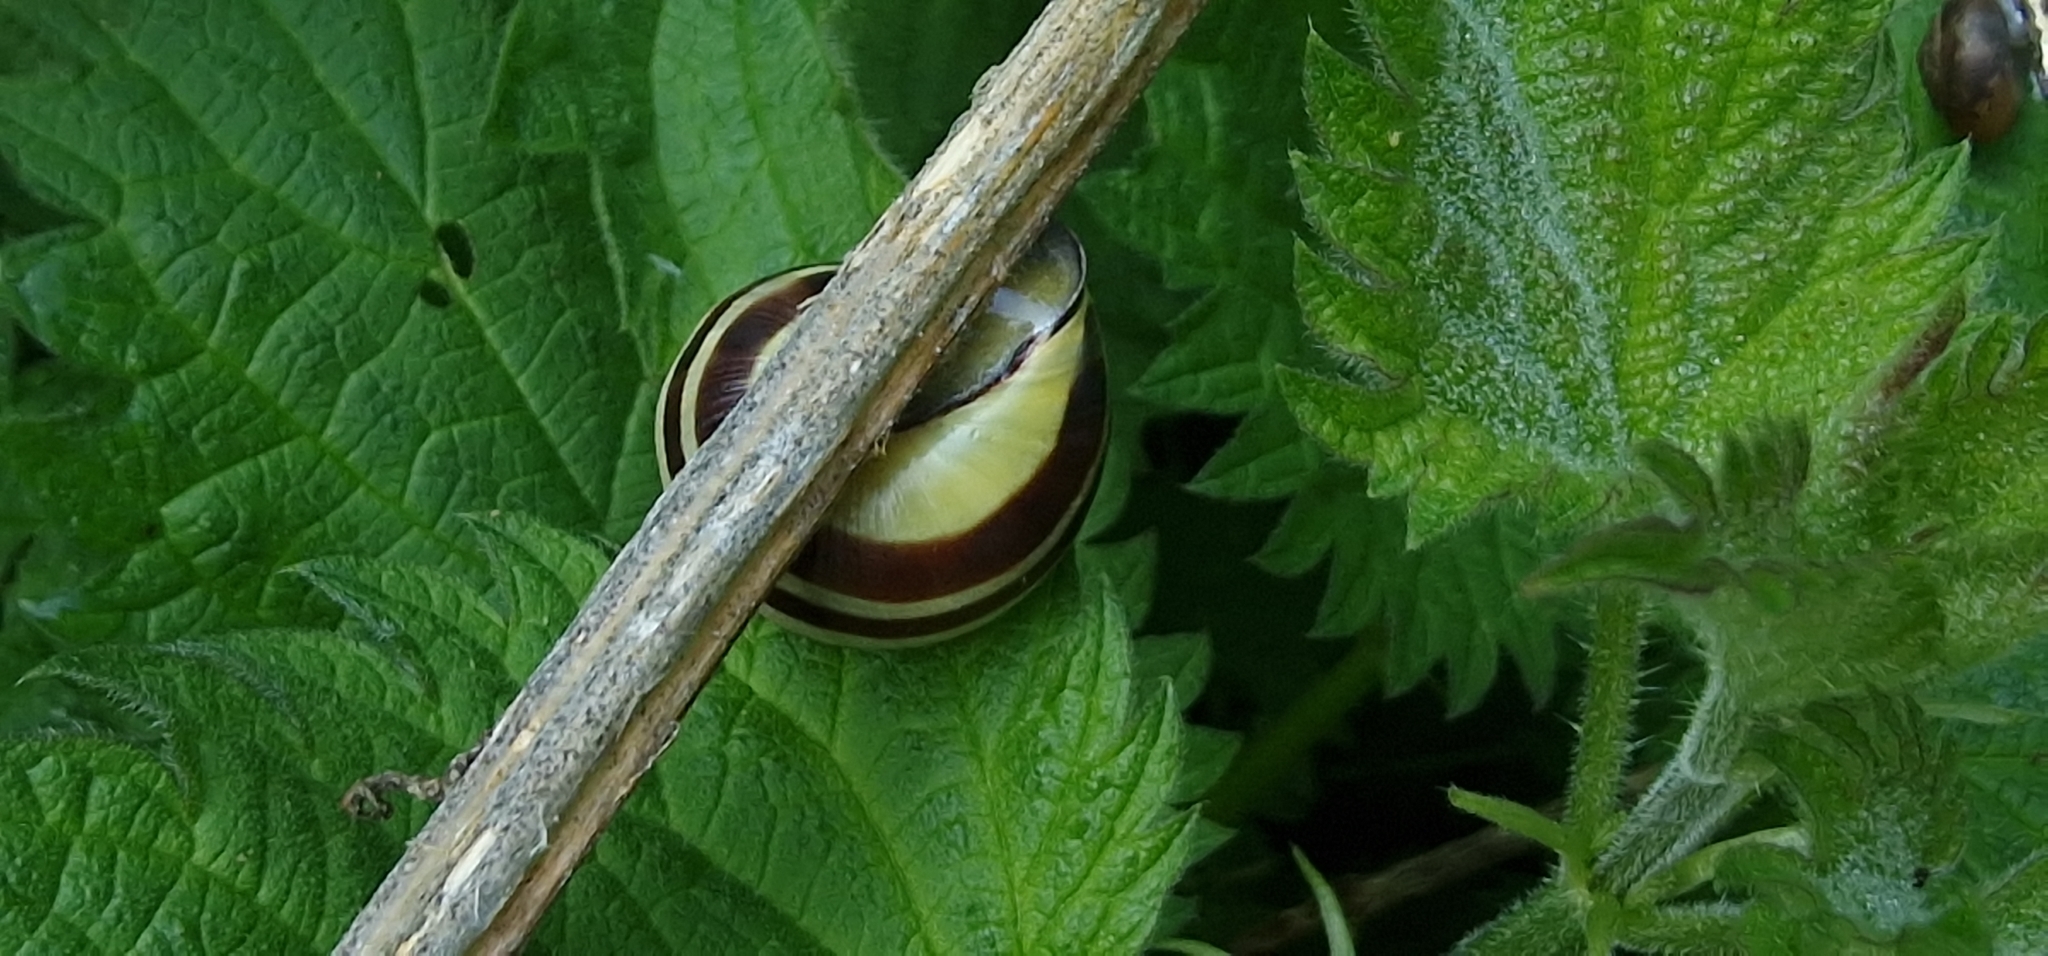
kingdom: Animalia
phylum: Mollusca
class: Gastropoda
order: Stylommatophora
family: Helicidae
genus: Cepaea
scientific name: Cepaea nemoralis
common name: Grovesnail
